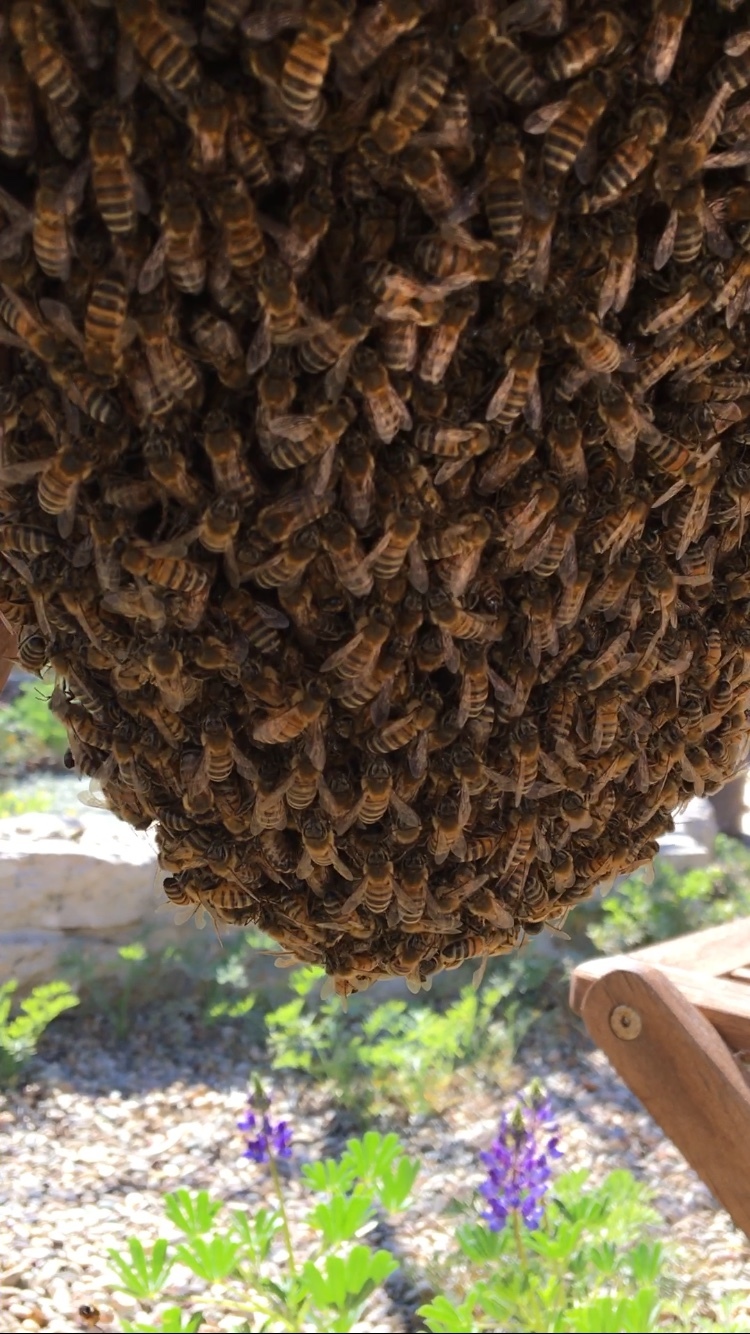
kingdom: Animalia
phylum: Arthropoda
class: Insecta
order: Hymenoptera
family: Apidae
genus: Apis
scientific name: Apis mellifera
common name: Honey bee
